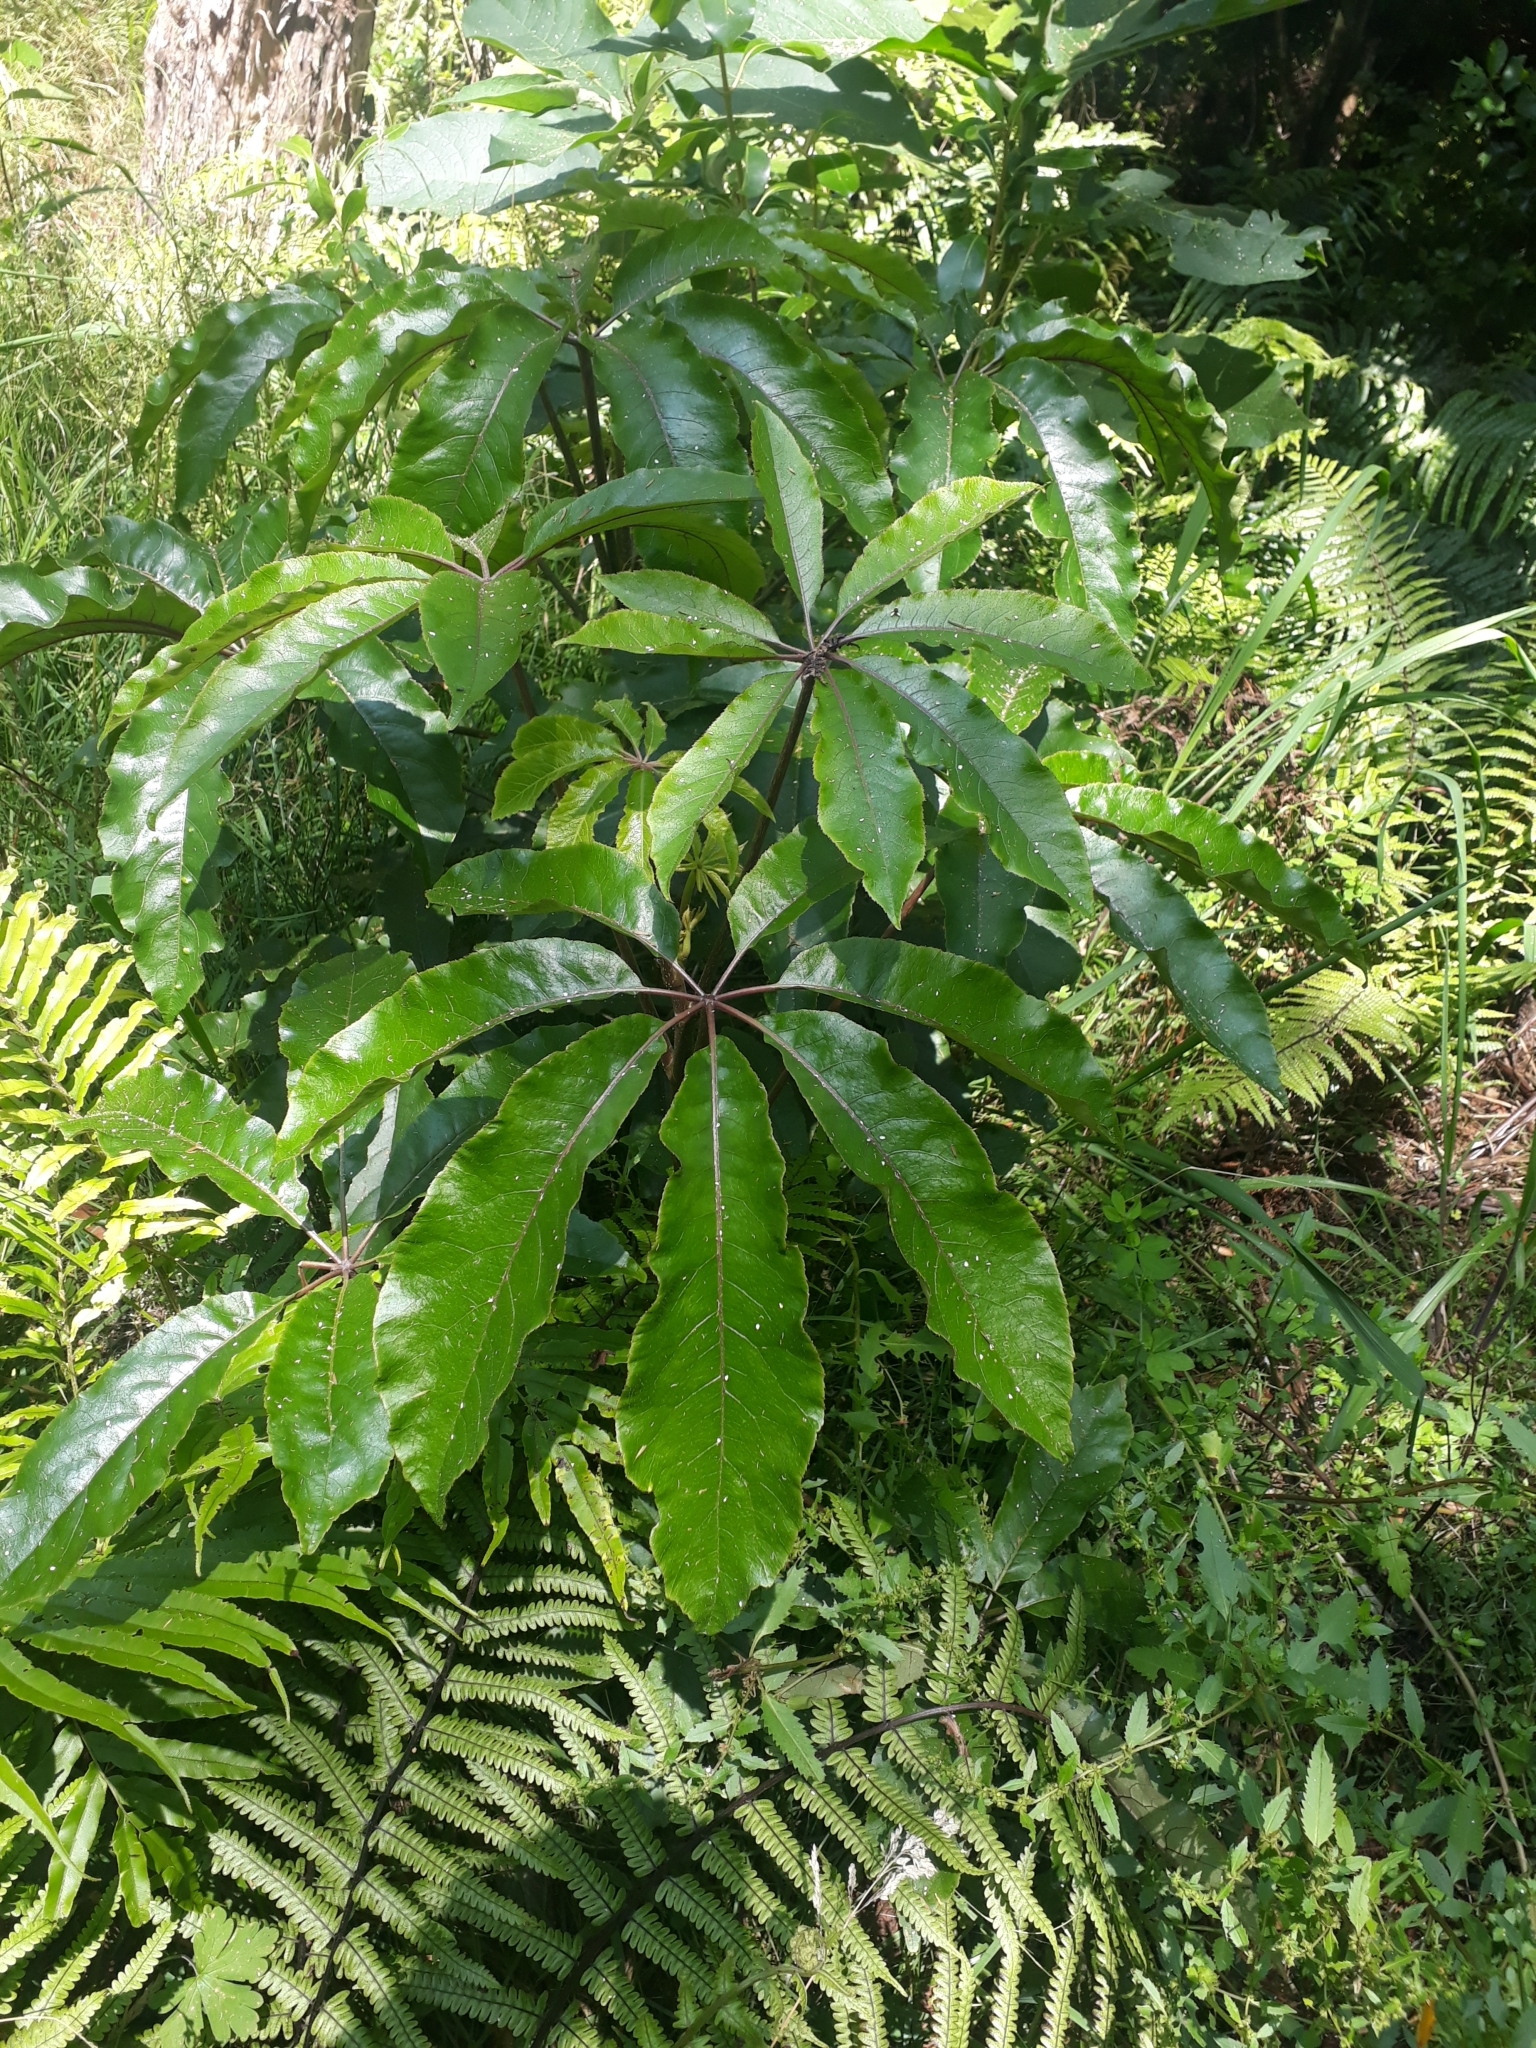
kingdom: Plantae
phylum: Tracheophyta
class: Magnoliopsida
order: Apiales
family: Araliaceae
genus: Schefflera
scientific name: Schefflera digitata
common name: Pate
